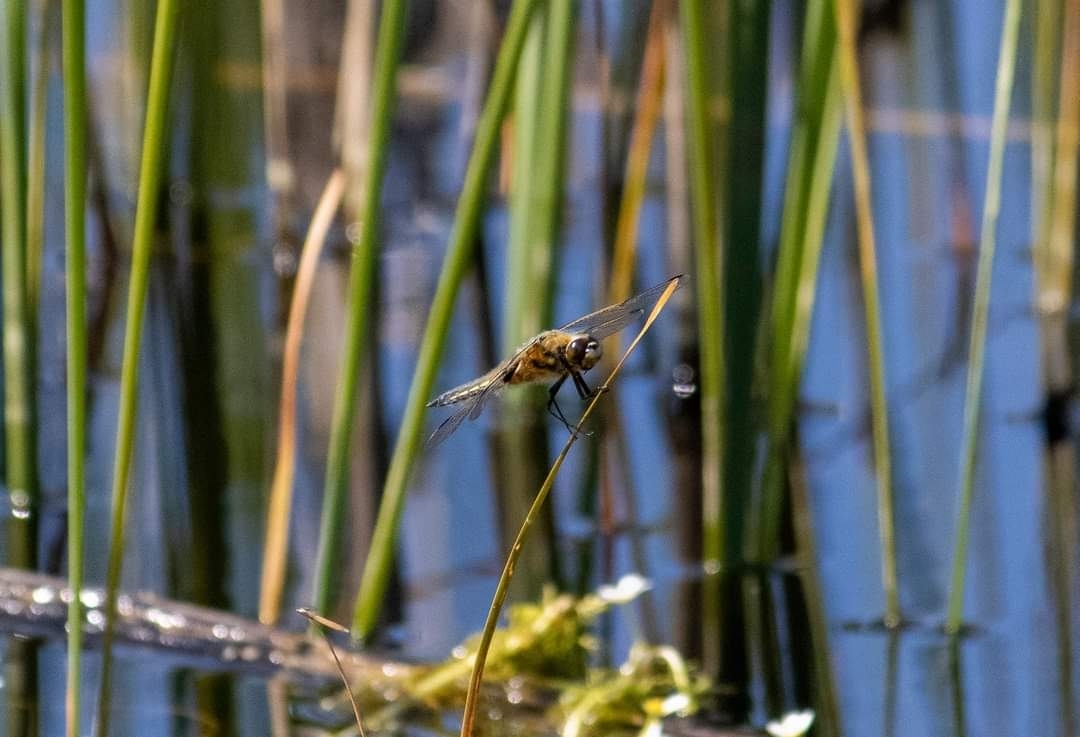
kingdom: Animalia
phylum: Arthropoda
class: Insecta
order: Odonata
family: Libellulidae
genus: Libellula
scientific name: Libellula quadrimaculata
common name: Four-spotted chaser
